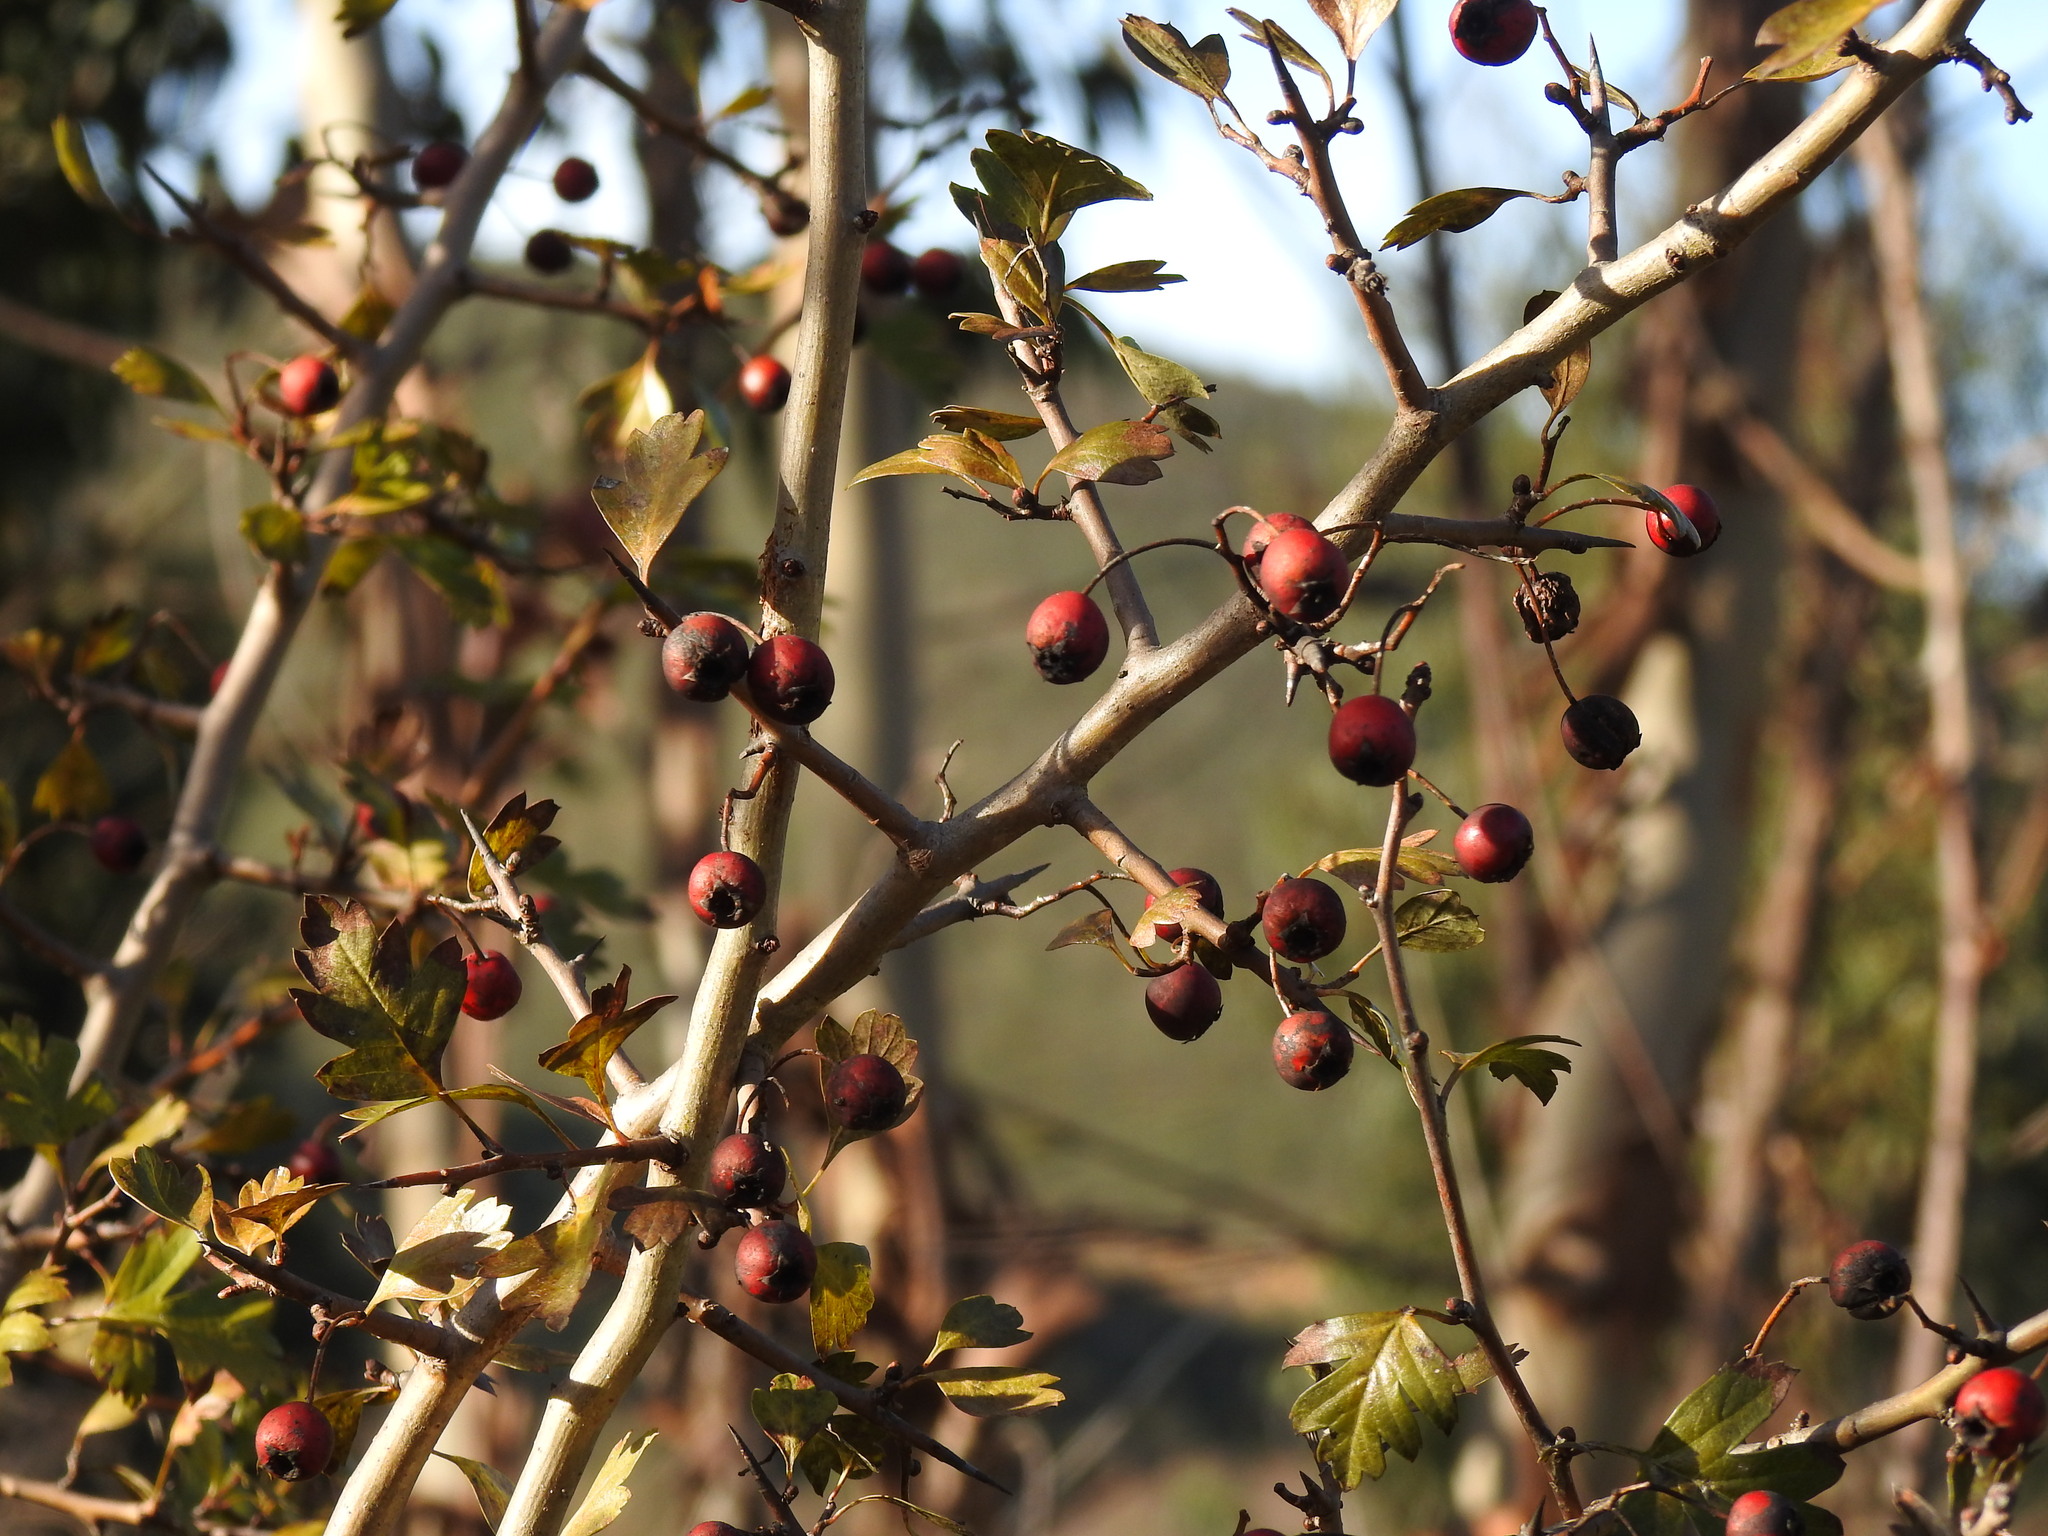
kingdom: Plantae
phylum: Tracheophyta
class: Magnoliopsida
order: Rosales
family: Rosaceae
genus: Crataegus
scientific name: Crataegus monogyna
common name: Hawthorn
